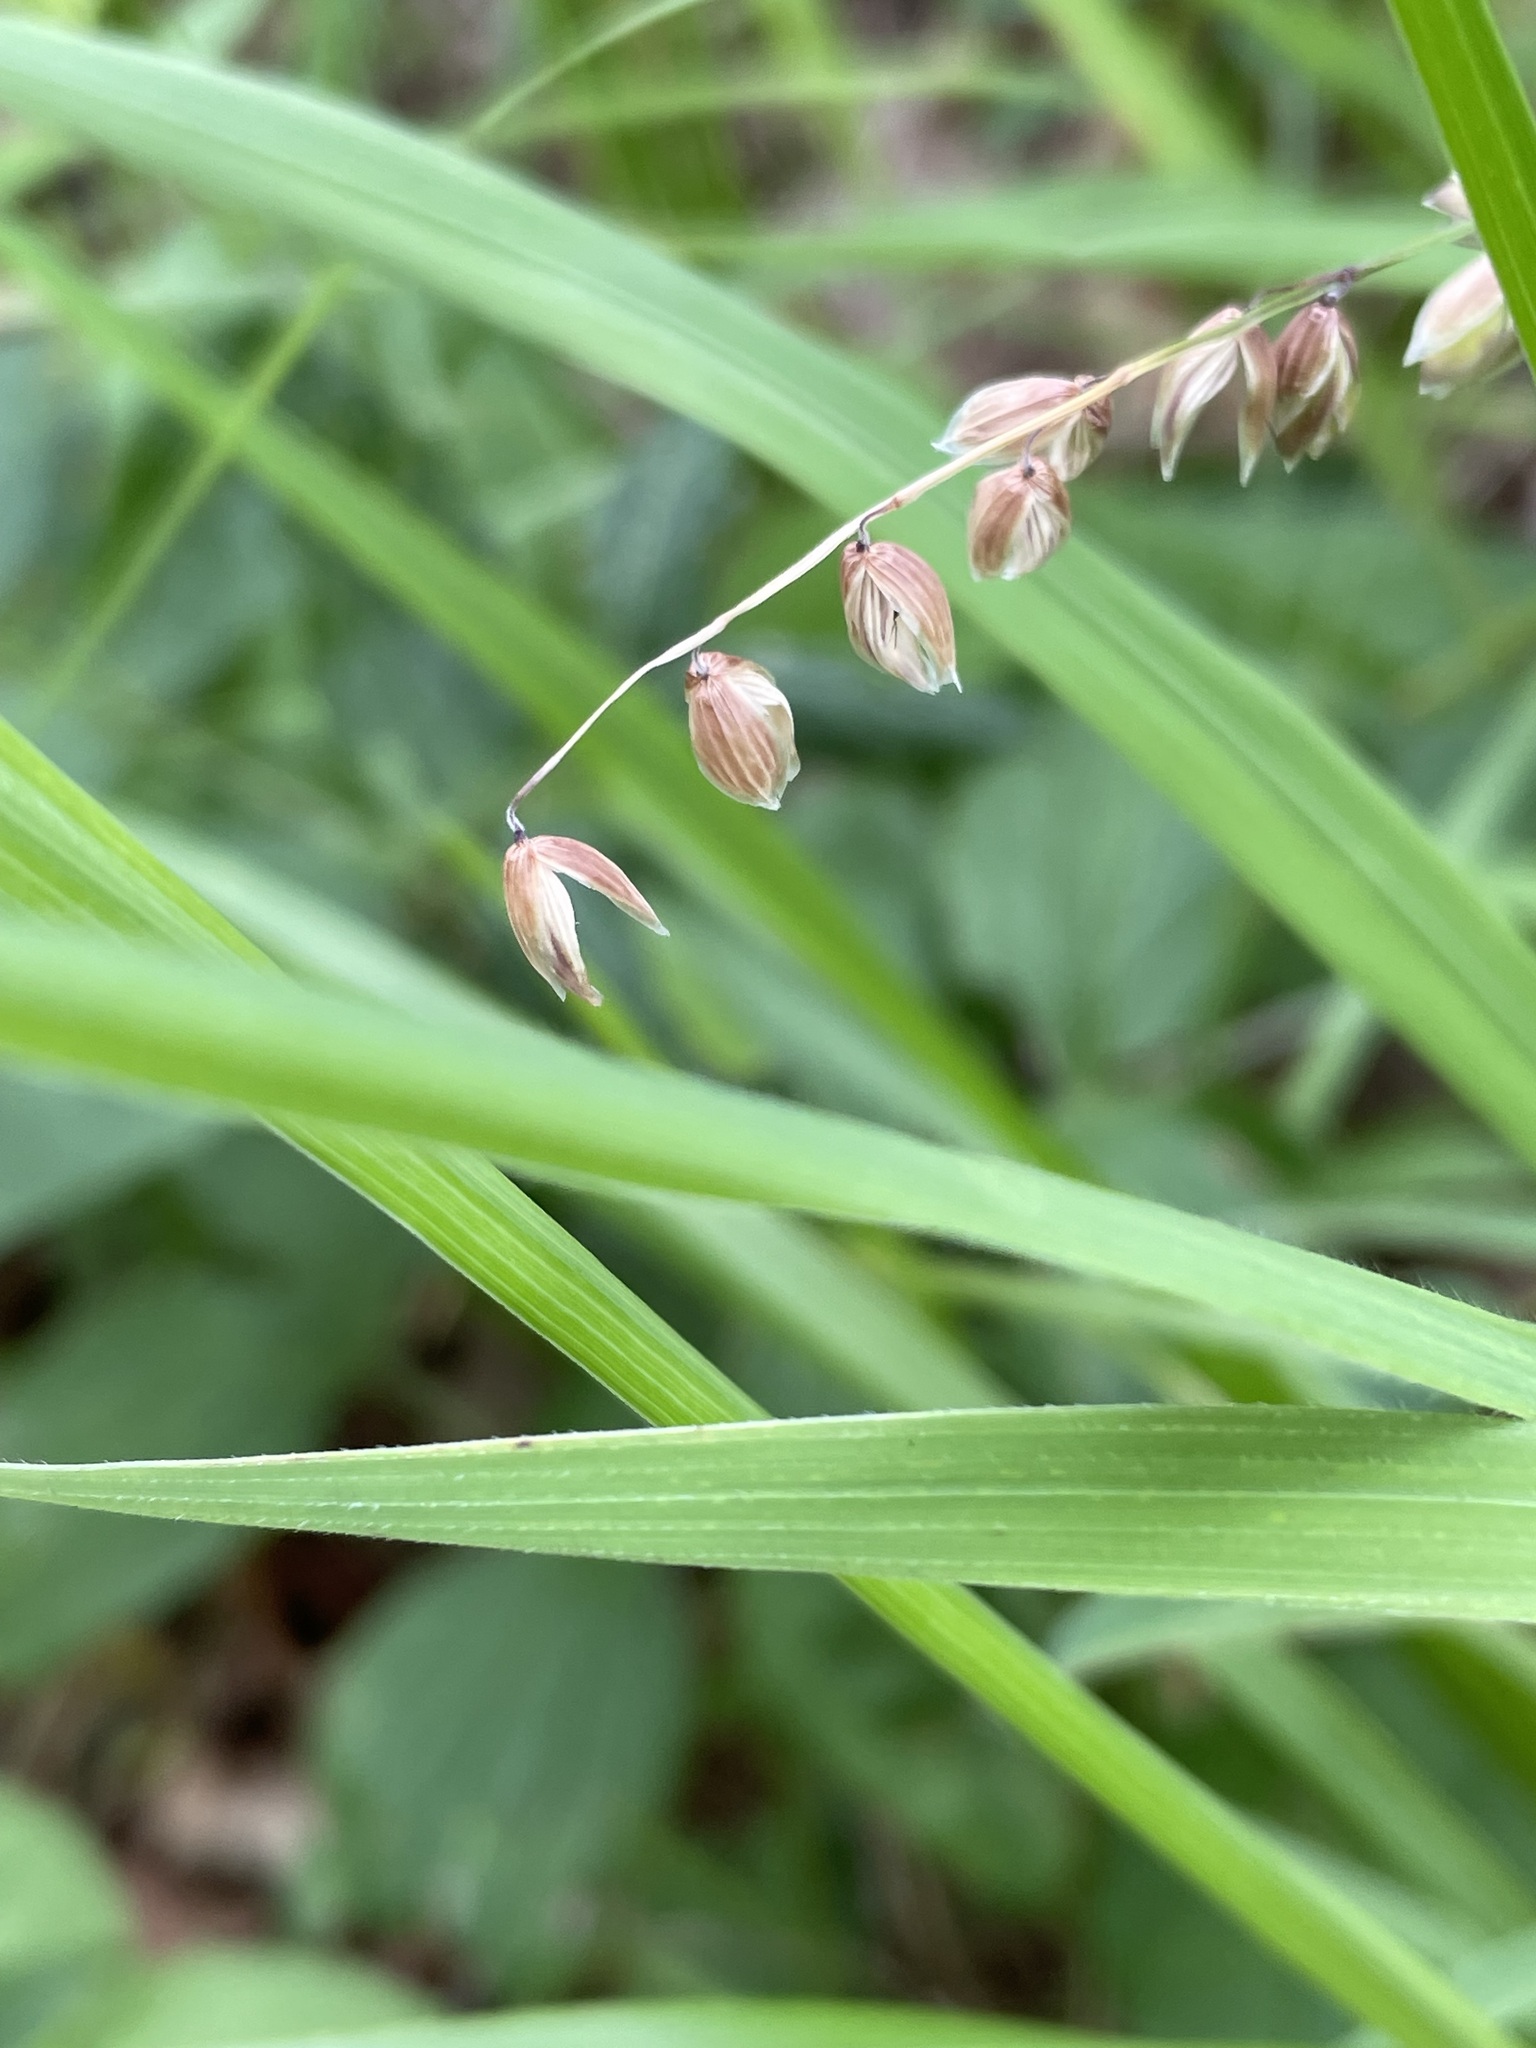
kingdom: Plantae
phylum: Tracheophyta
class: Liliopsida
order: Poales
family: Poaceae
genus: Melica
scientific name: Melica nutans
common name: Mountain melick
